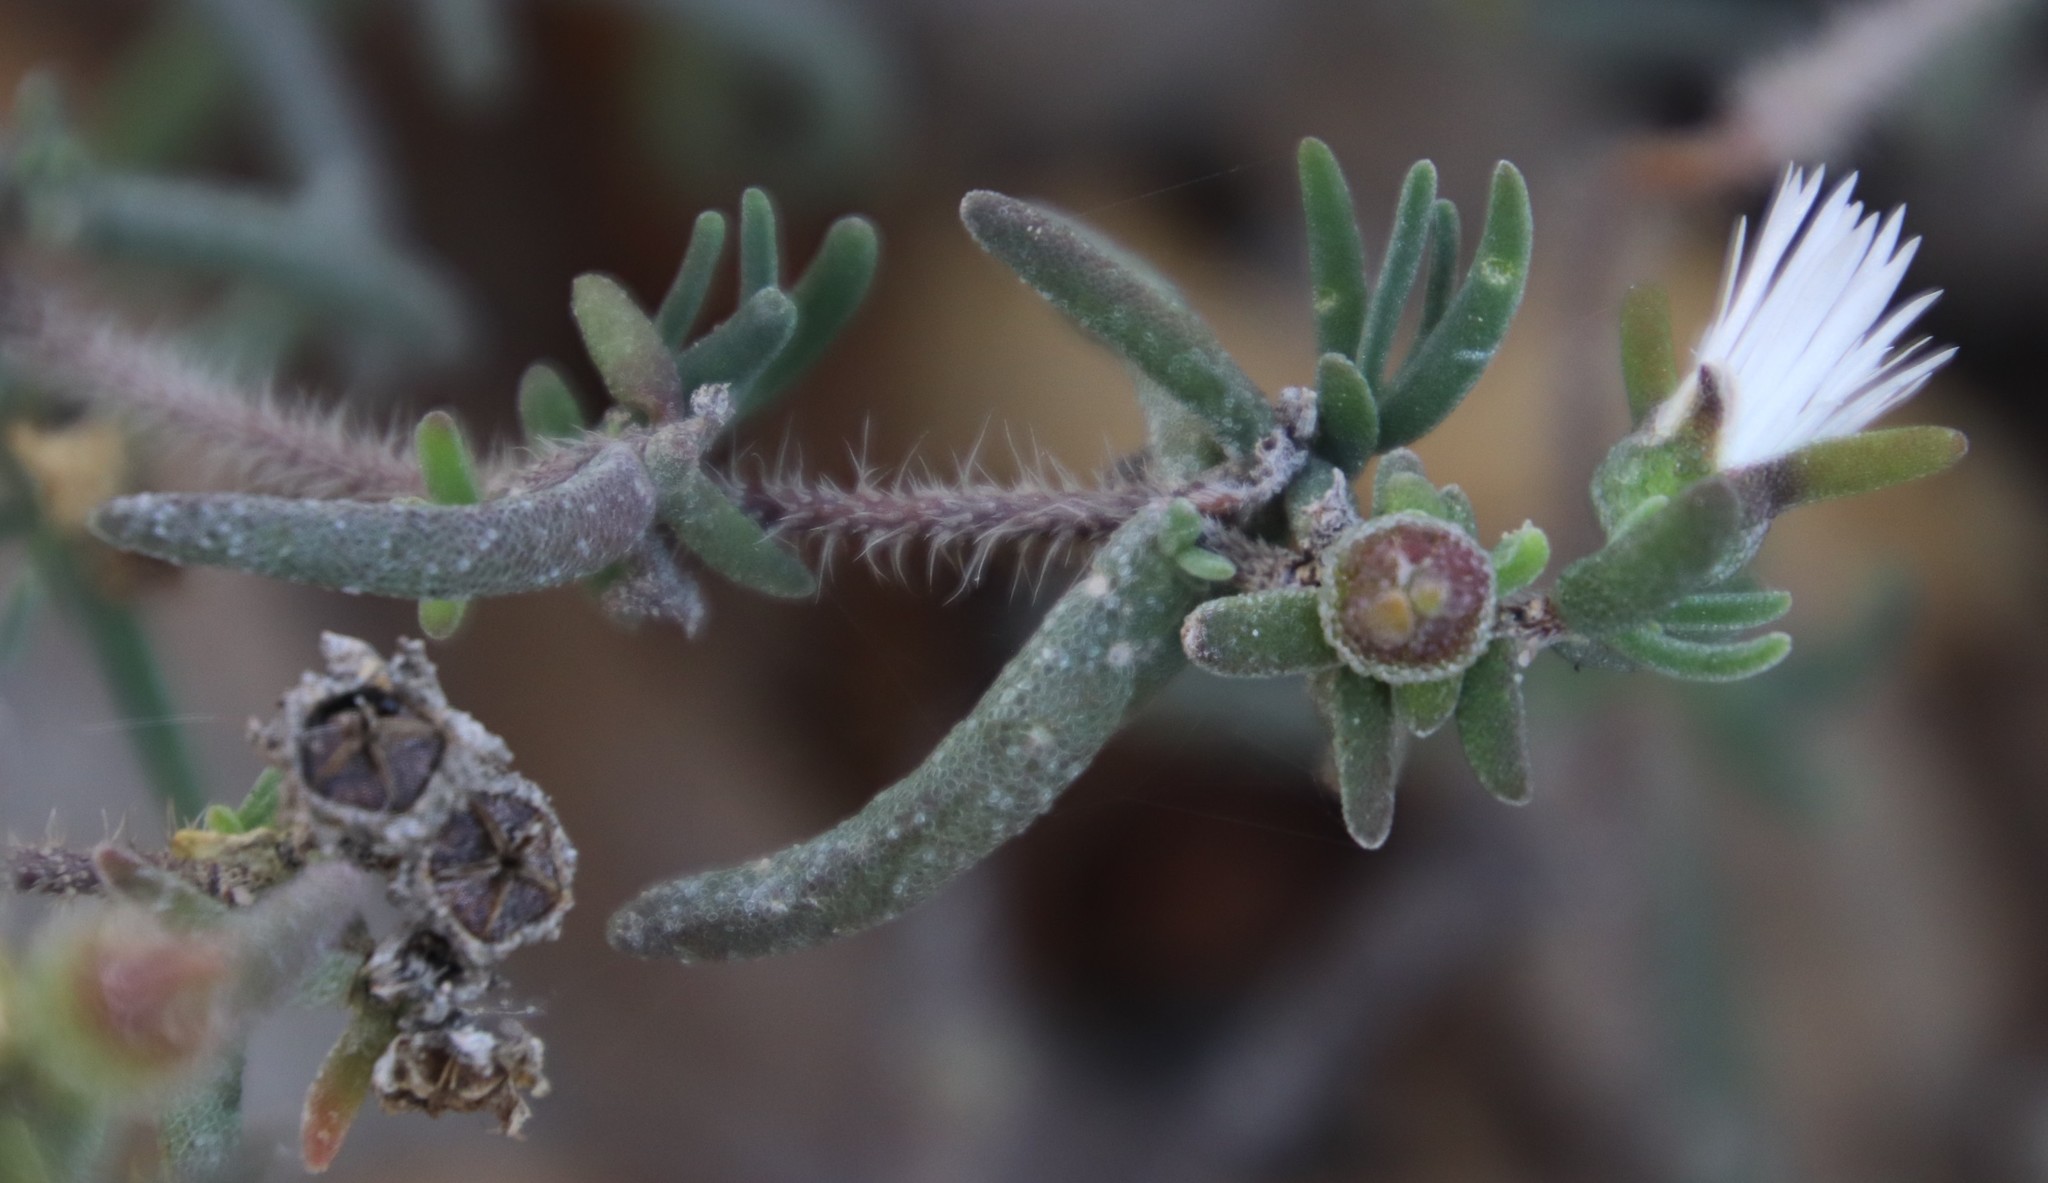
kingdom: Plantae
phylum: Tracheophyta
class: Magnoliopsida
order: Caryophyllales
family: Aizoaceae
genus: Drosanthemum
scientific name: Drosanthemum calycinum
